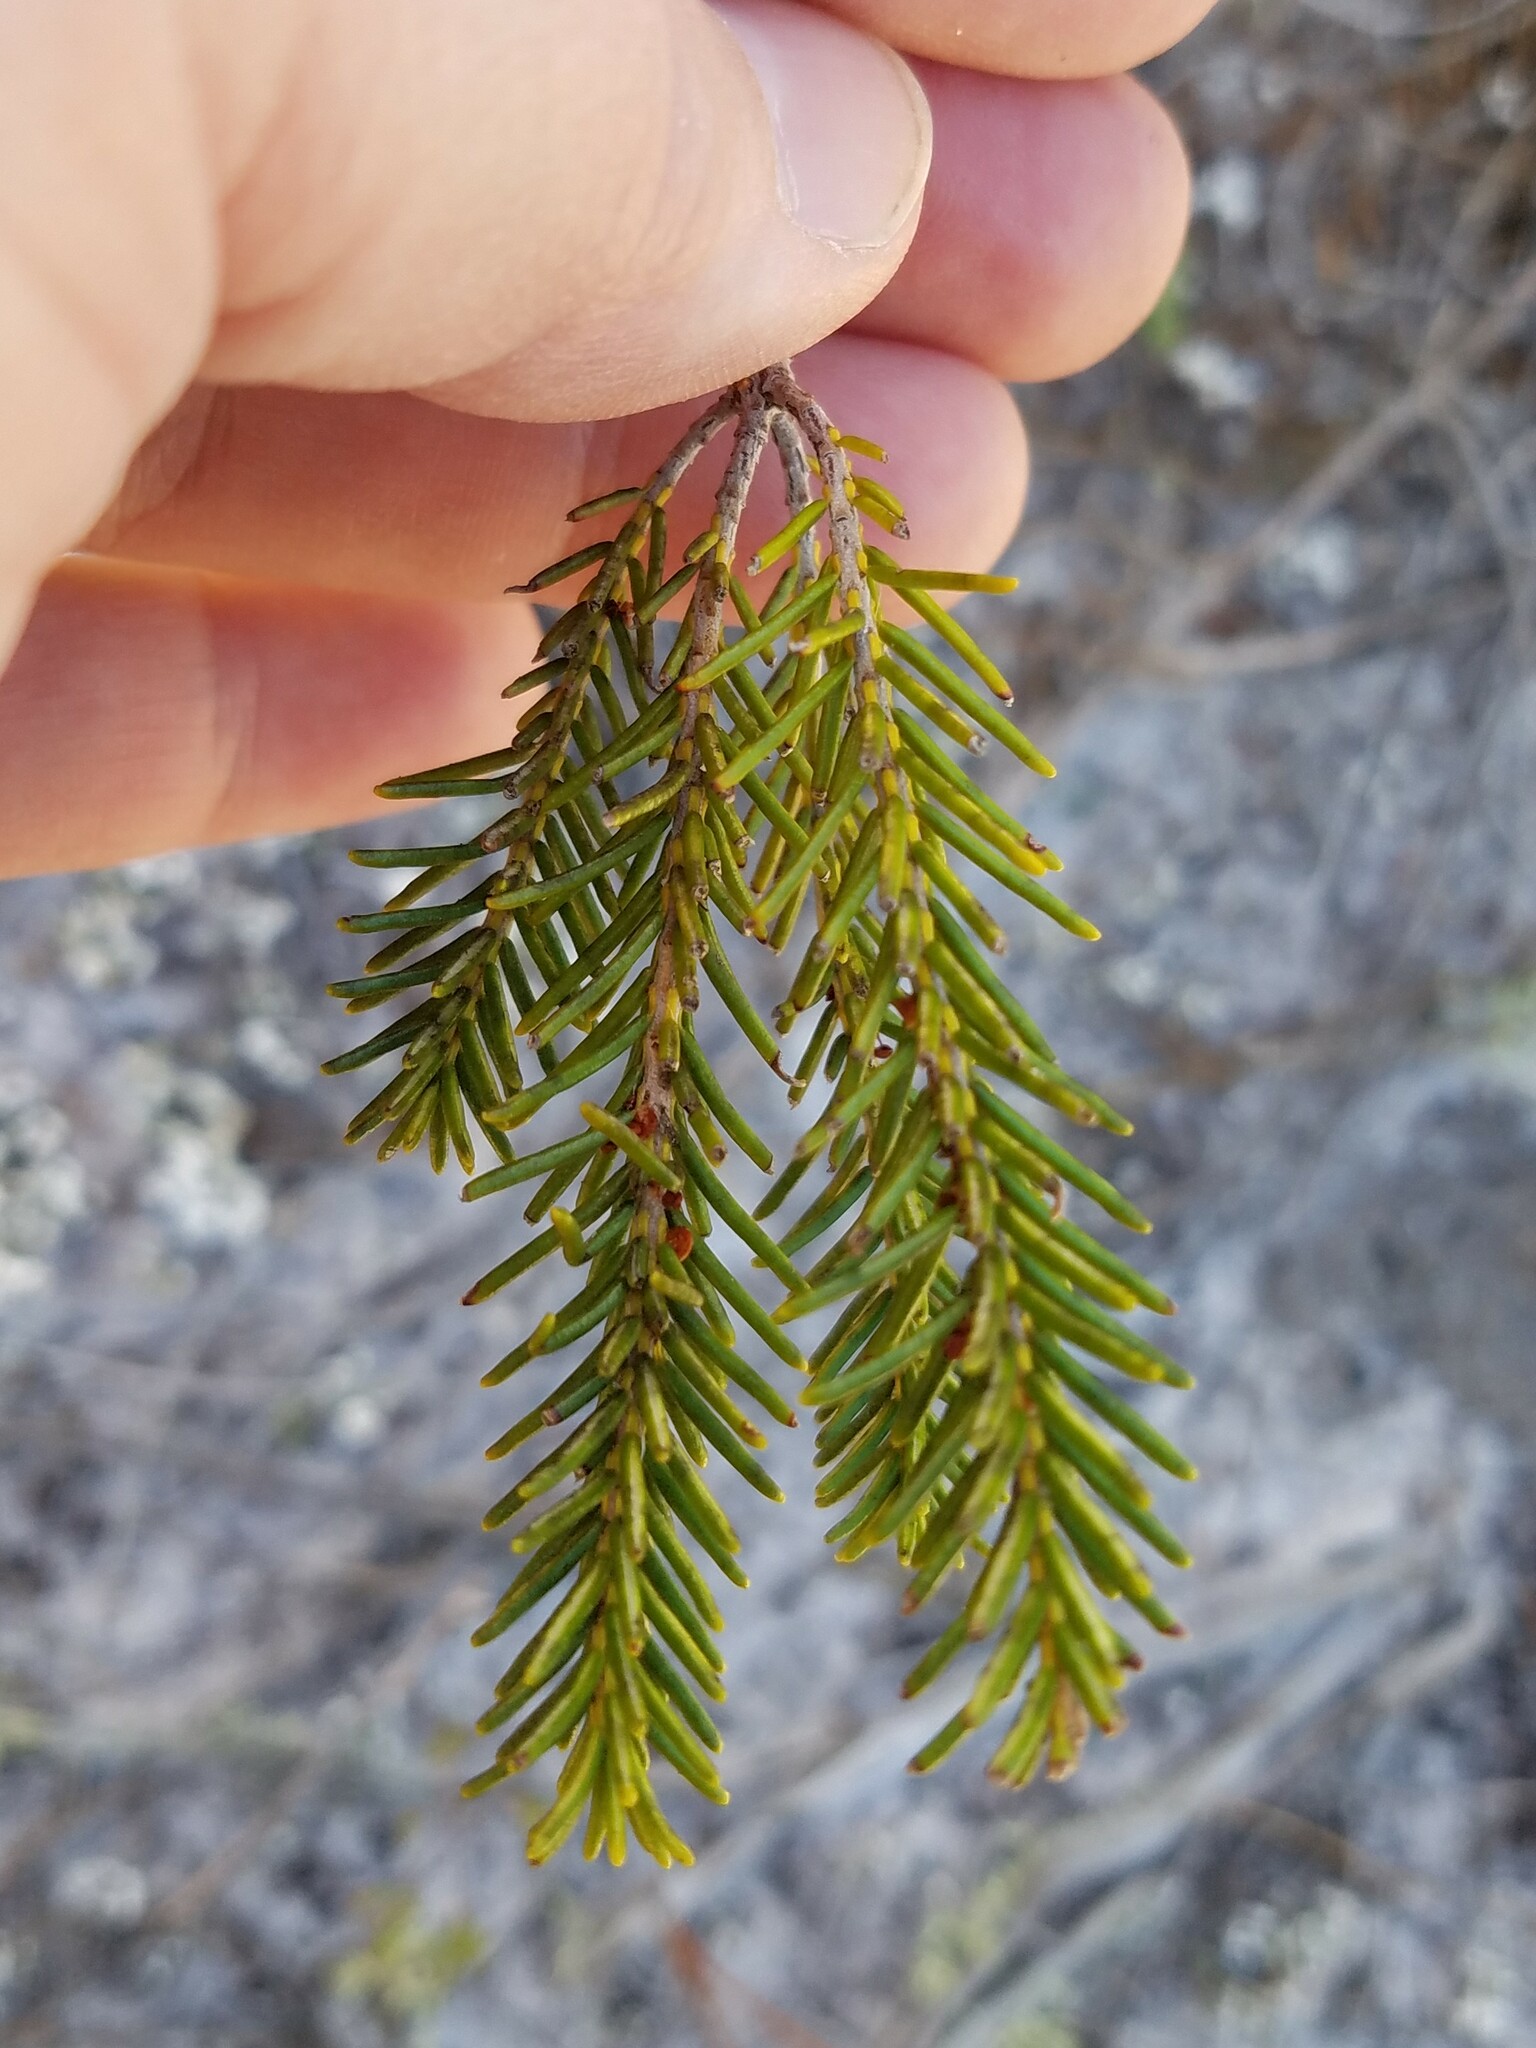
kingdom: Plantae
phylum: Tracheophyta
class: Magnoliopsida
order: Ericales
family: Ericaceae
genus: Ceratiola
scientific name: Ceratiola ericoides
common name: Sandhill-rosemary
